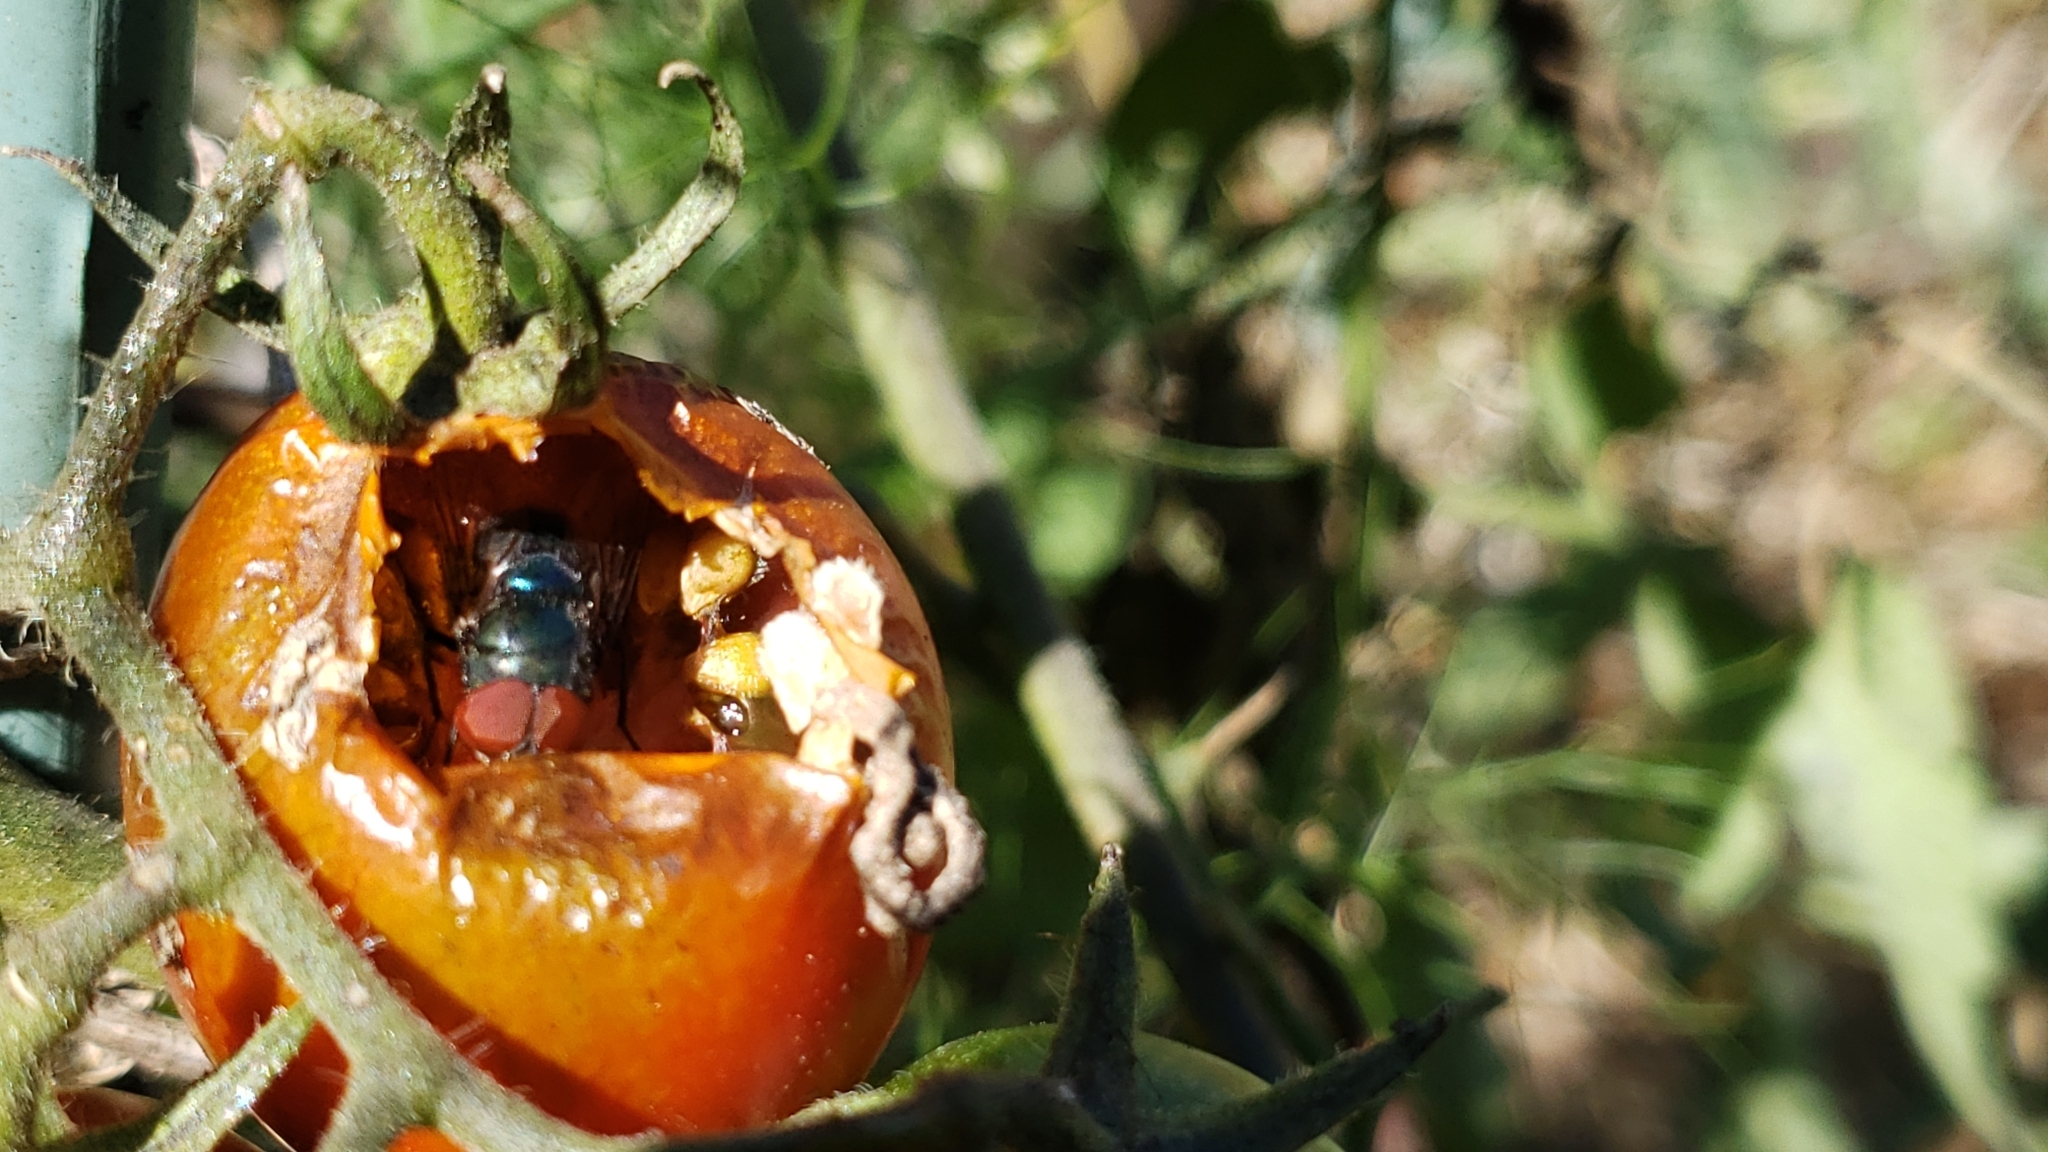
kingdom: Animalia
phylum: Arthropoda
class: Insecta
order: Diptera
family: Calliphoridae
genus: Chrysomya
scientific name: Chrysomya megacephala
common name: Blow fly
